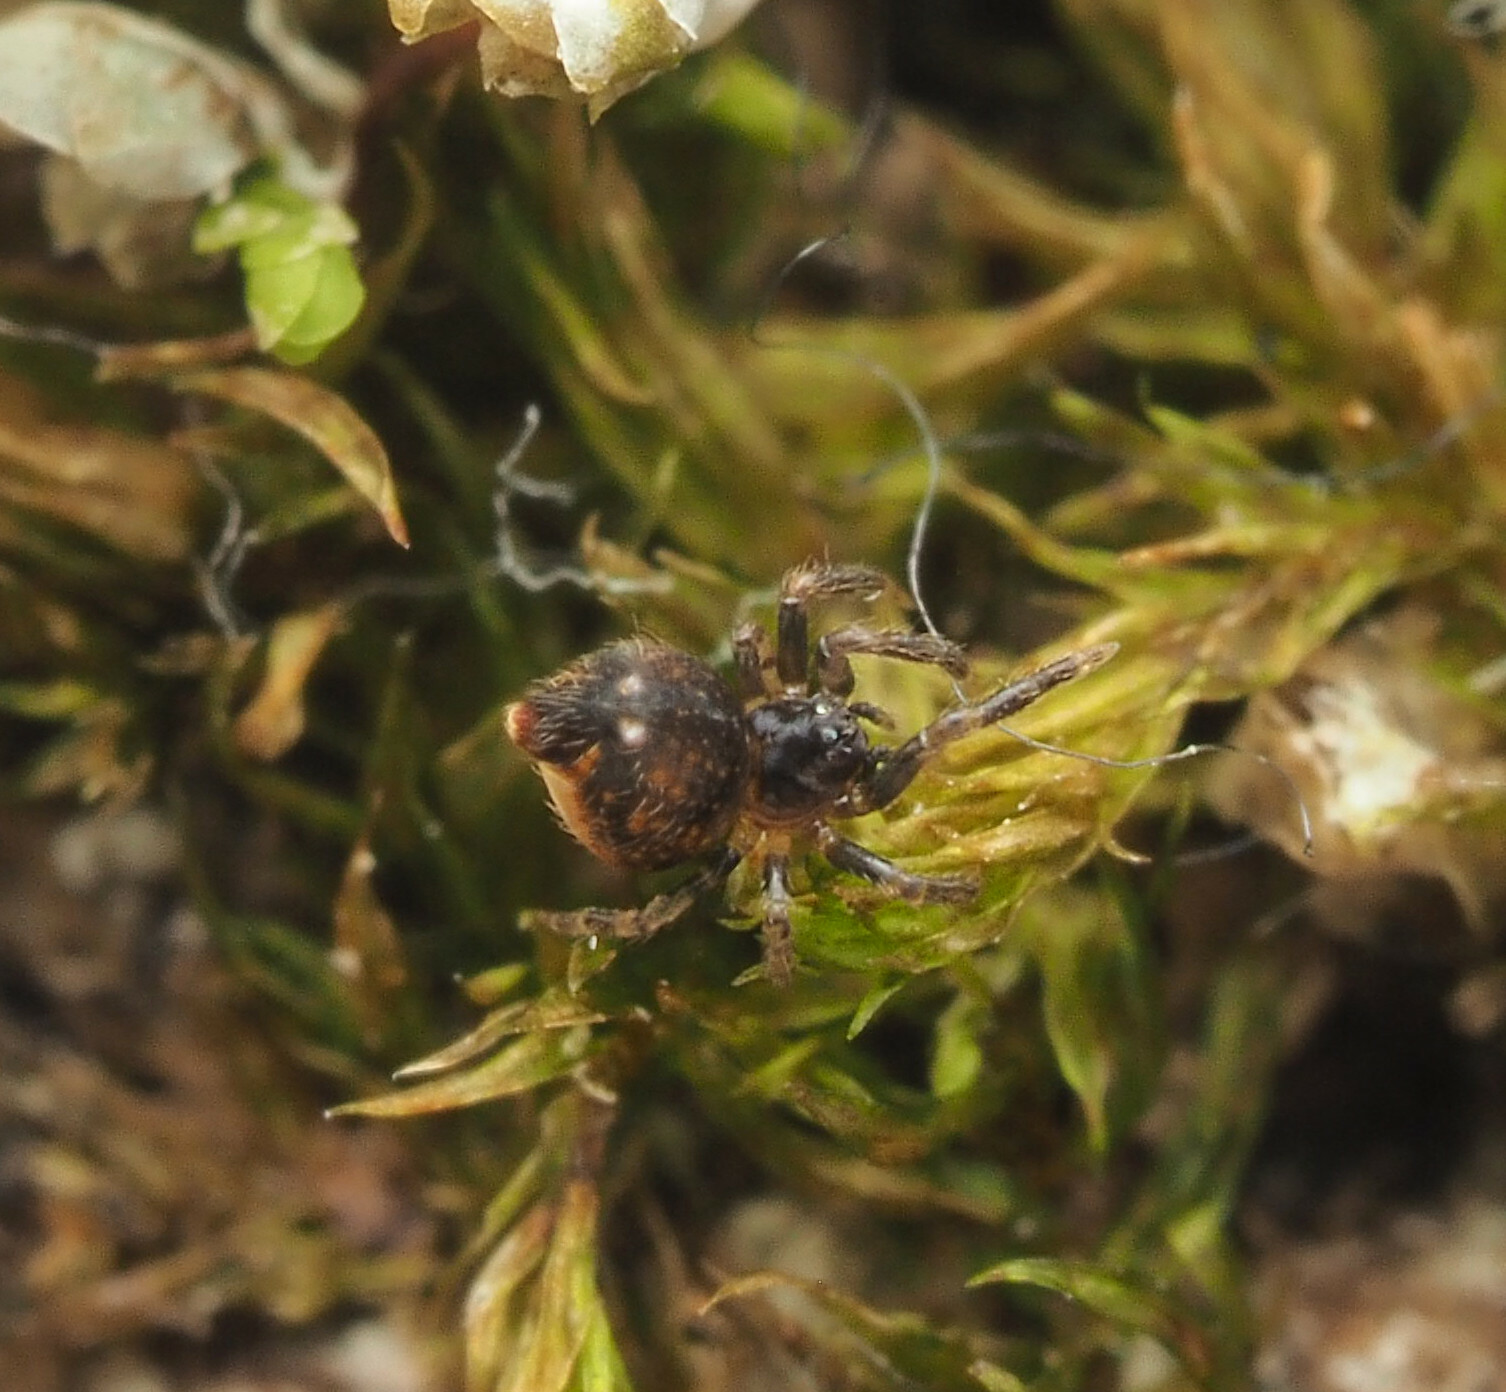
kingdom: Animalia
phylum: Arthropoda
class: Arachnida
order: Araneae
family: Mysmenidae
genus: Trogloneta
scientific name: Trogloneta
